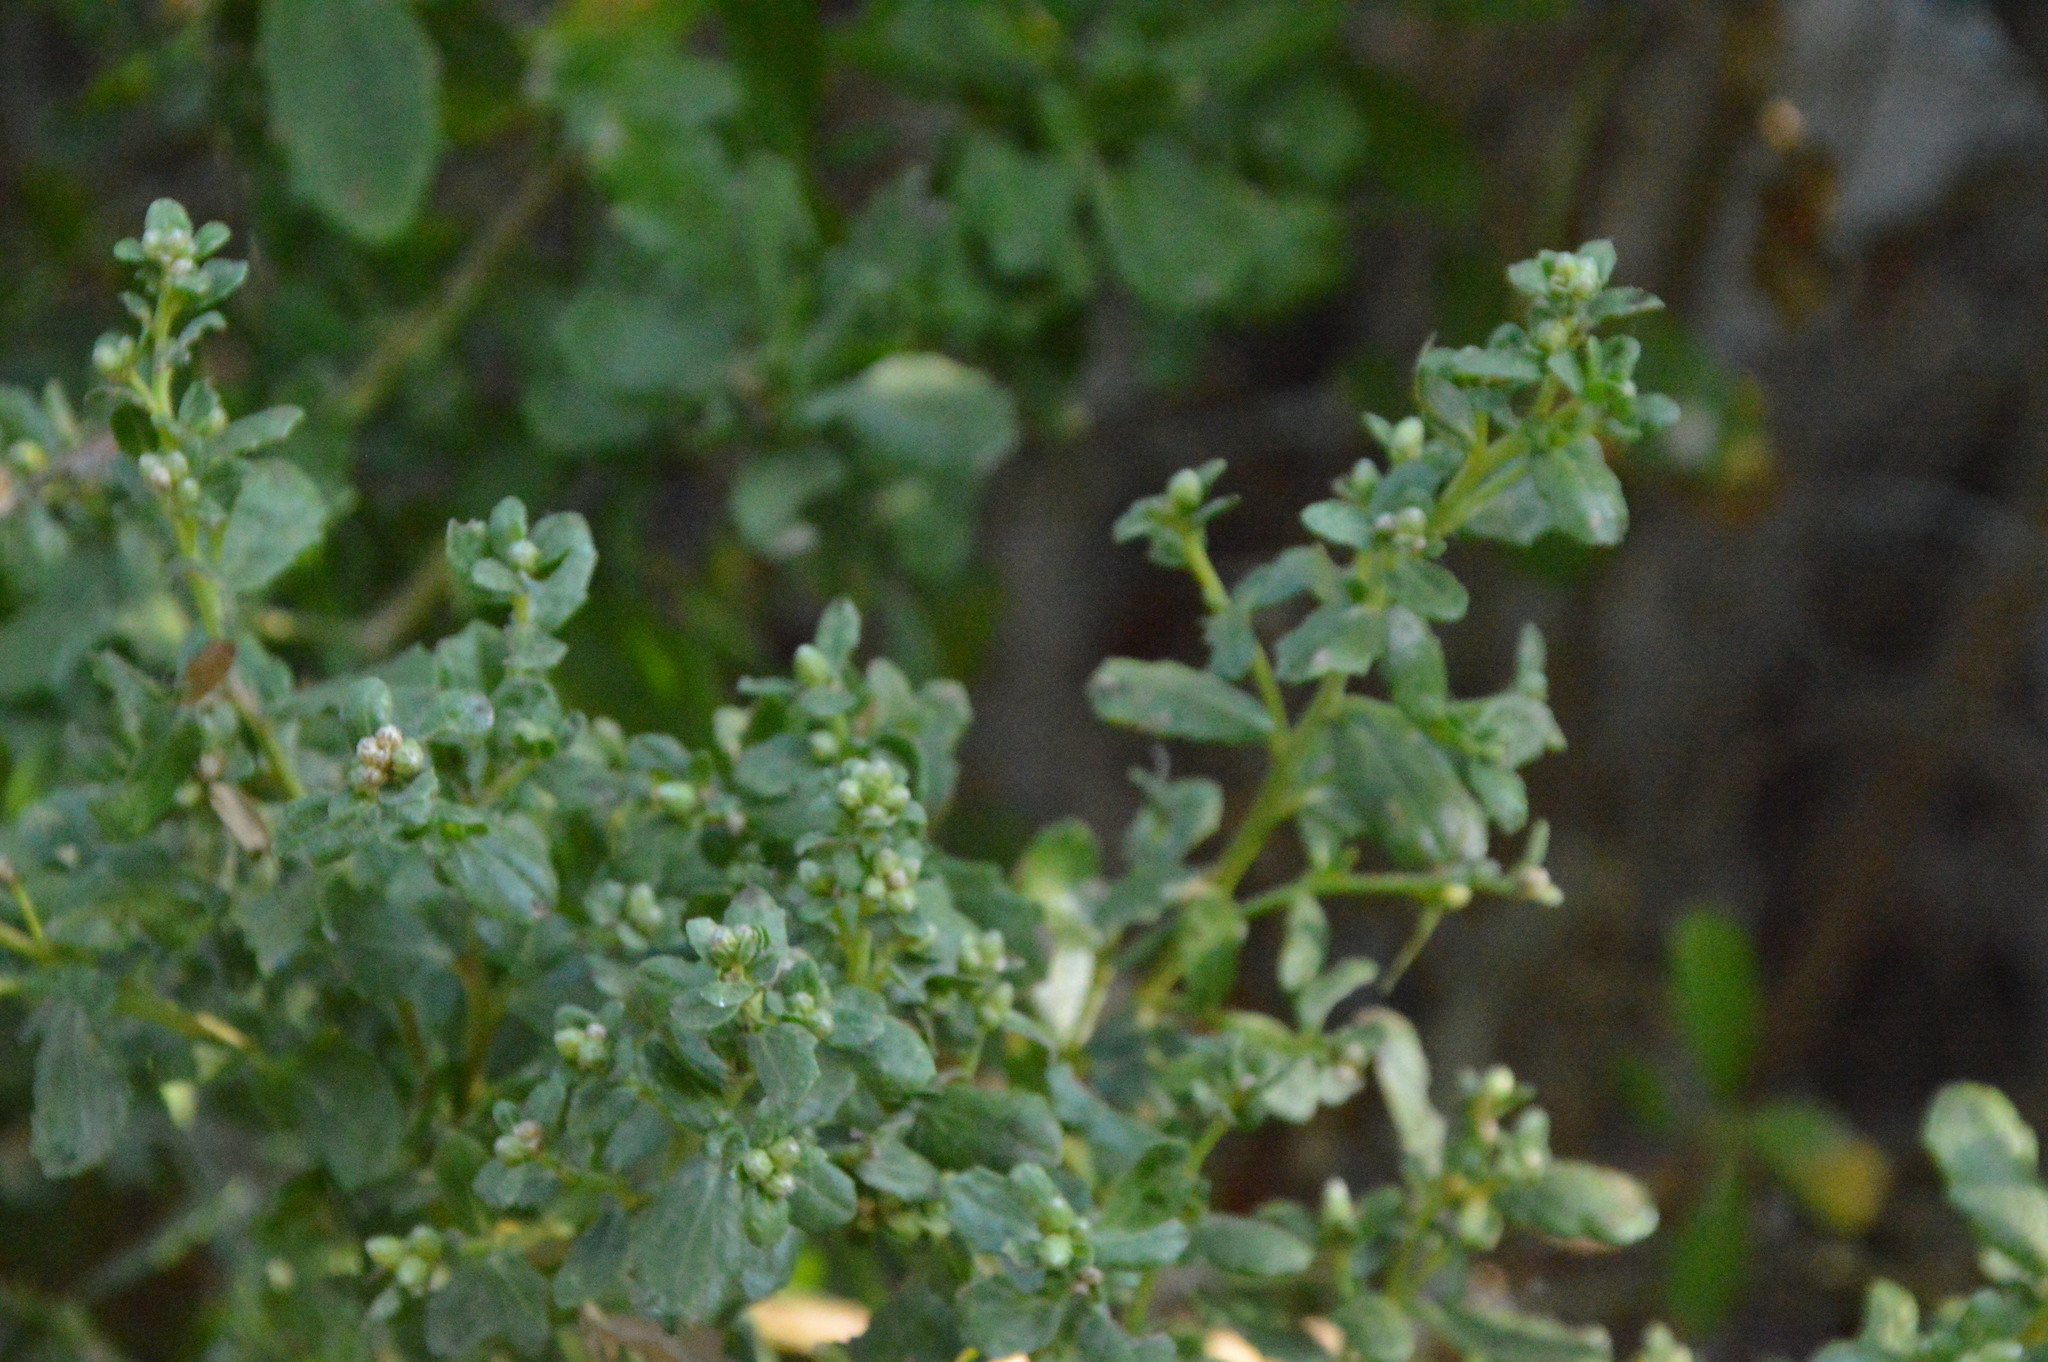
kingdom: Plantae
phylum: Tracheophyta
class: Magnoliopsida
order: Asterales
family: Asteraceae
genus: Baccharis
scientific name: Baccharis pilularis
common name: Coyotebrush
